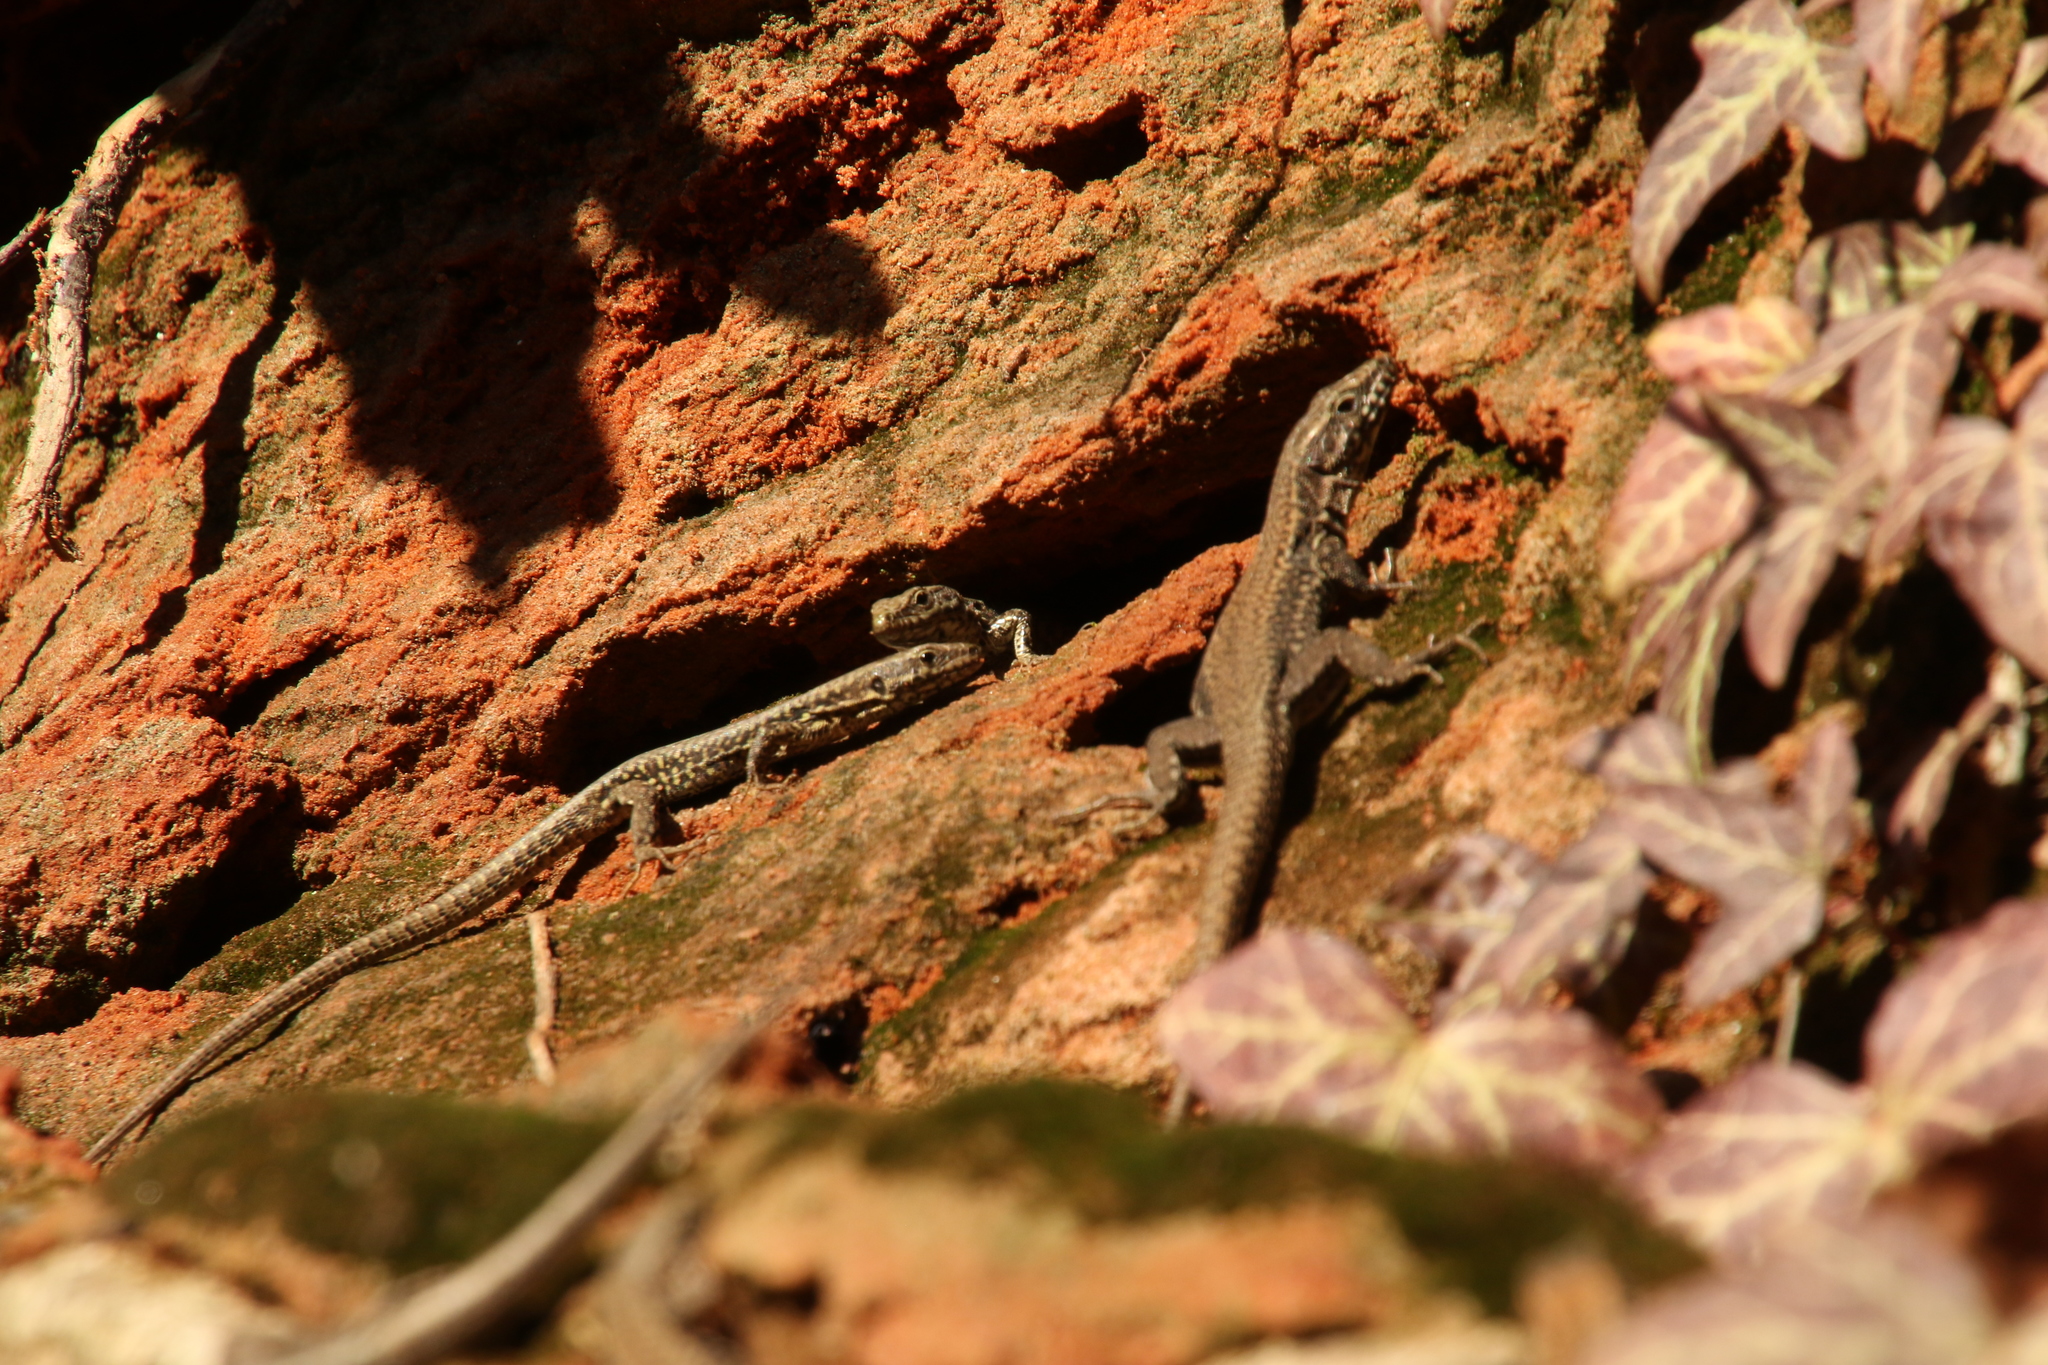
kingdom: Animalia
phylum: Chordata
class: Squamata
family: Lacertidae
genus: Podarcis
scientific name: Podarcis muralis
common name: Common wall lizard
